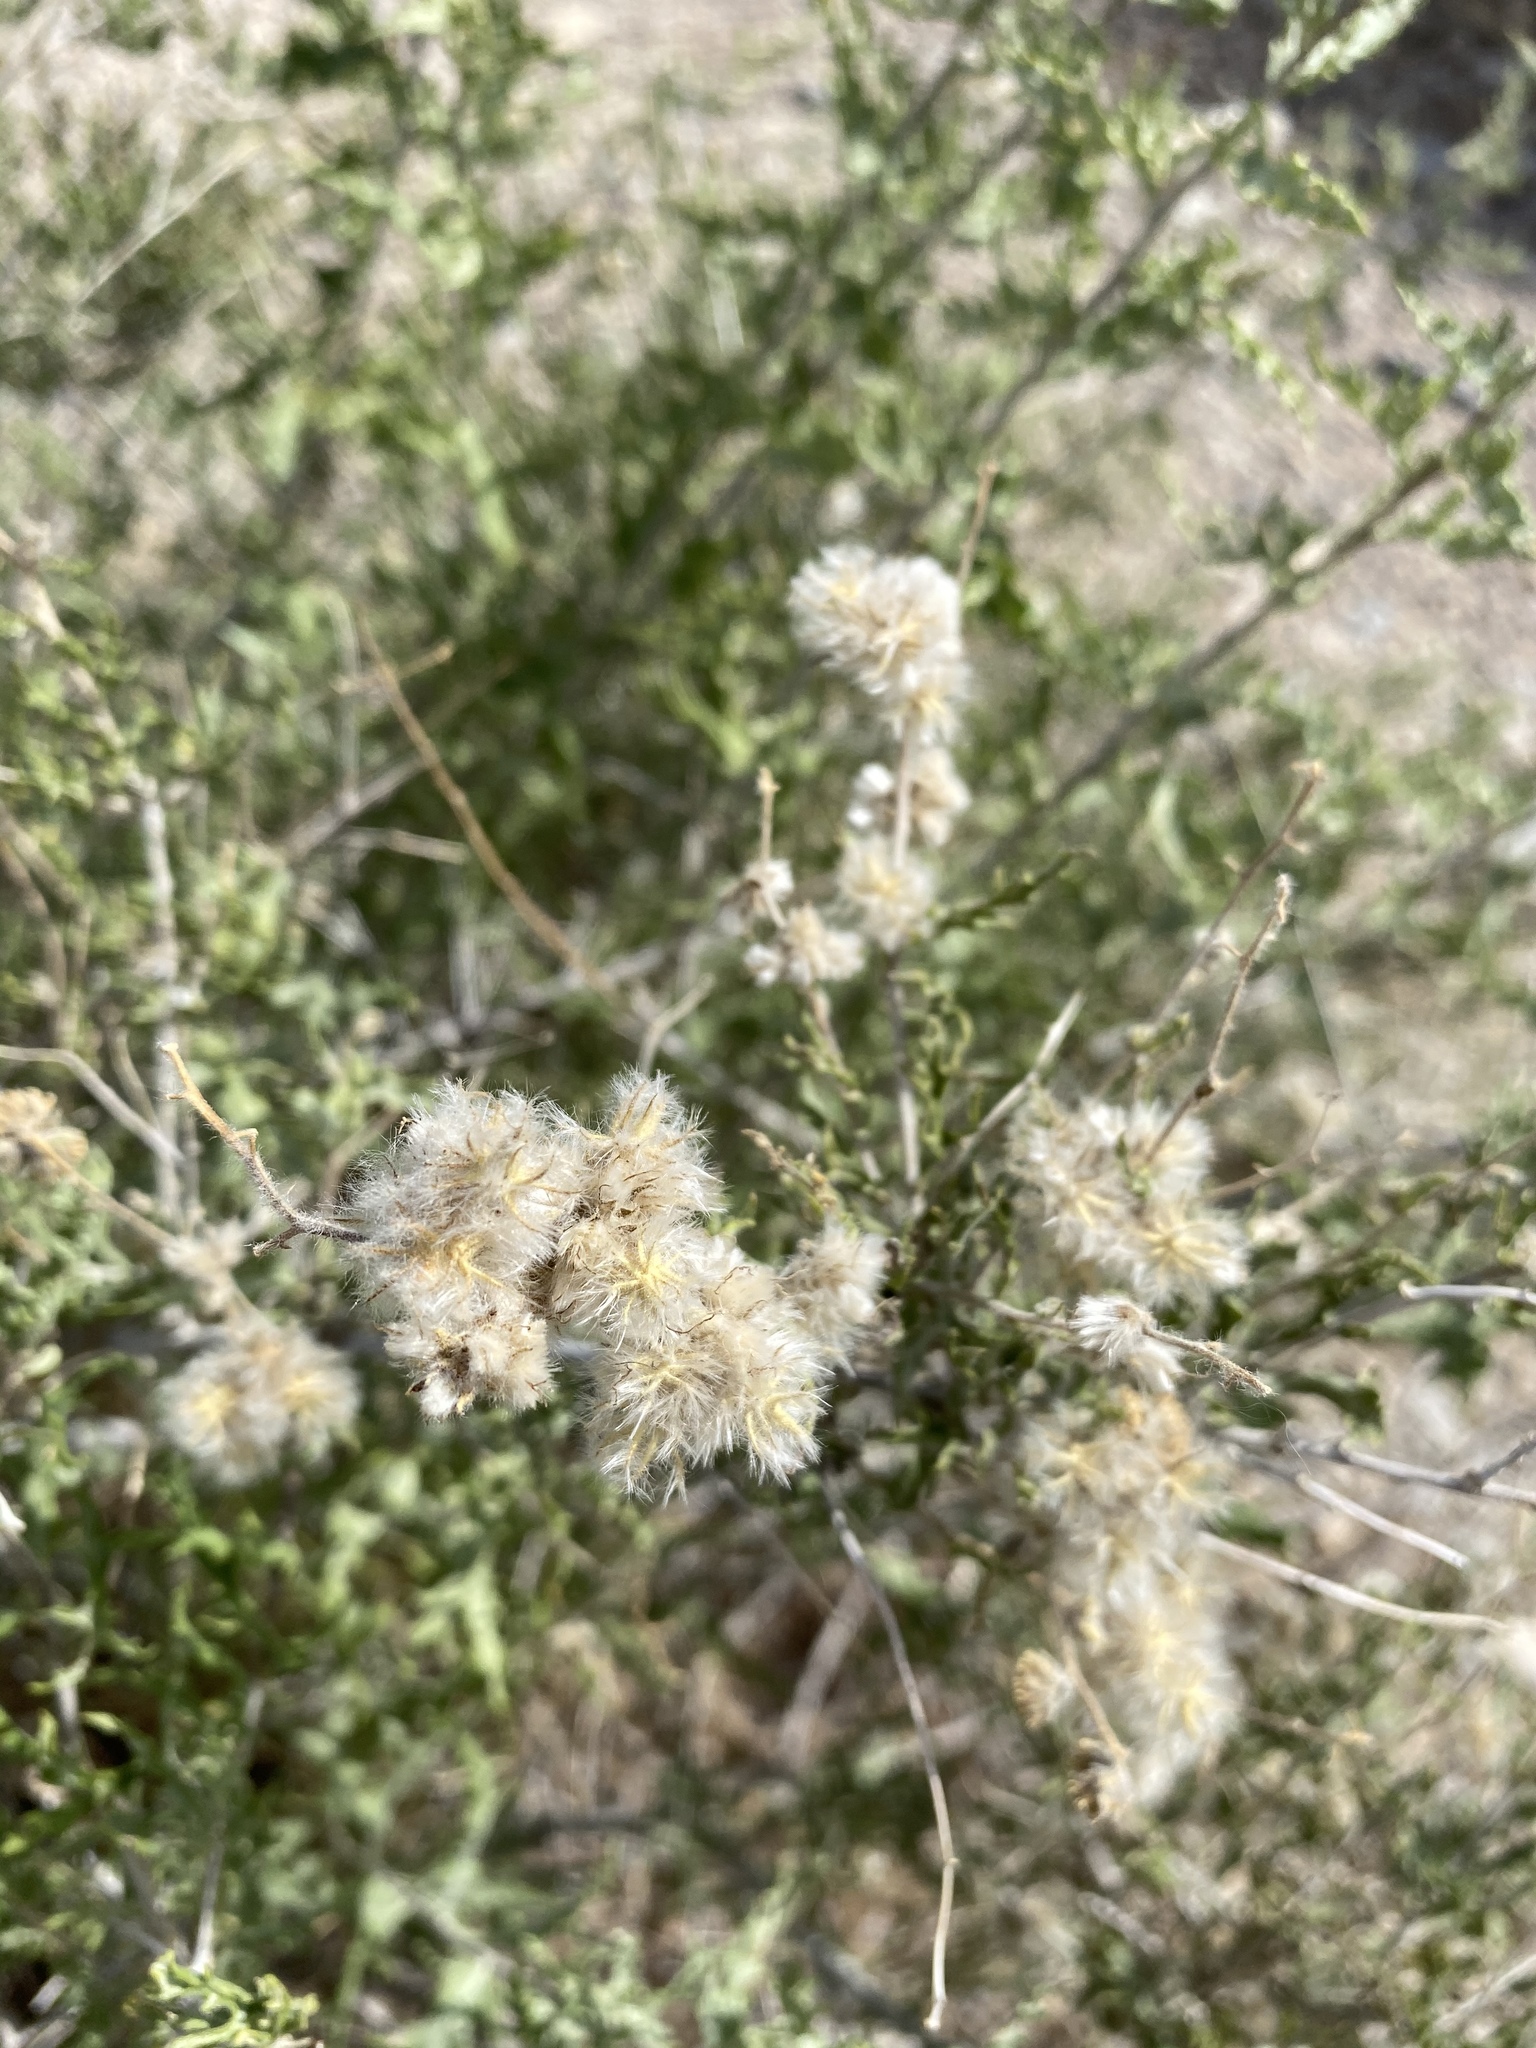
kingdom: Plantae
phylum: Tracheophyta
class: Magnoliopsida
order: Asterales
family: Asteraceae
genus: Ambrosia
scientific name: Ambrosia eriocentra
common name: Woolly bur-sage
